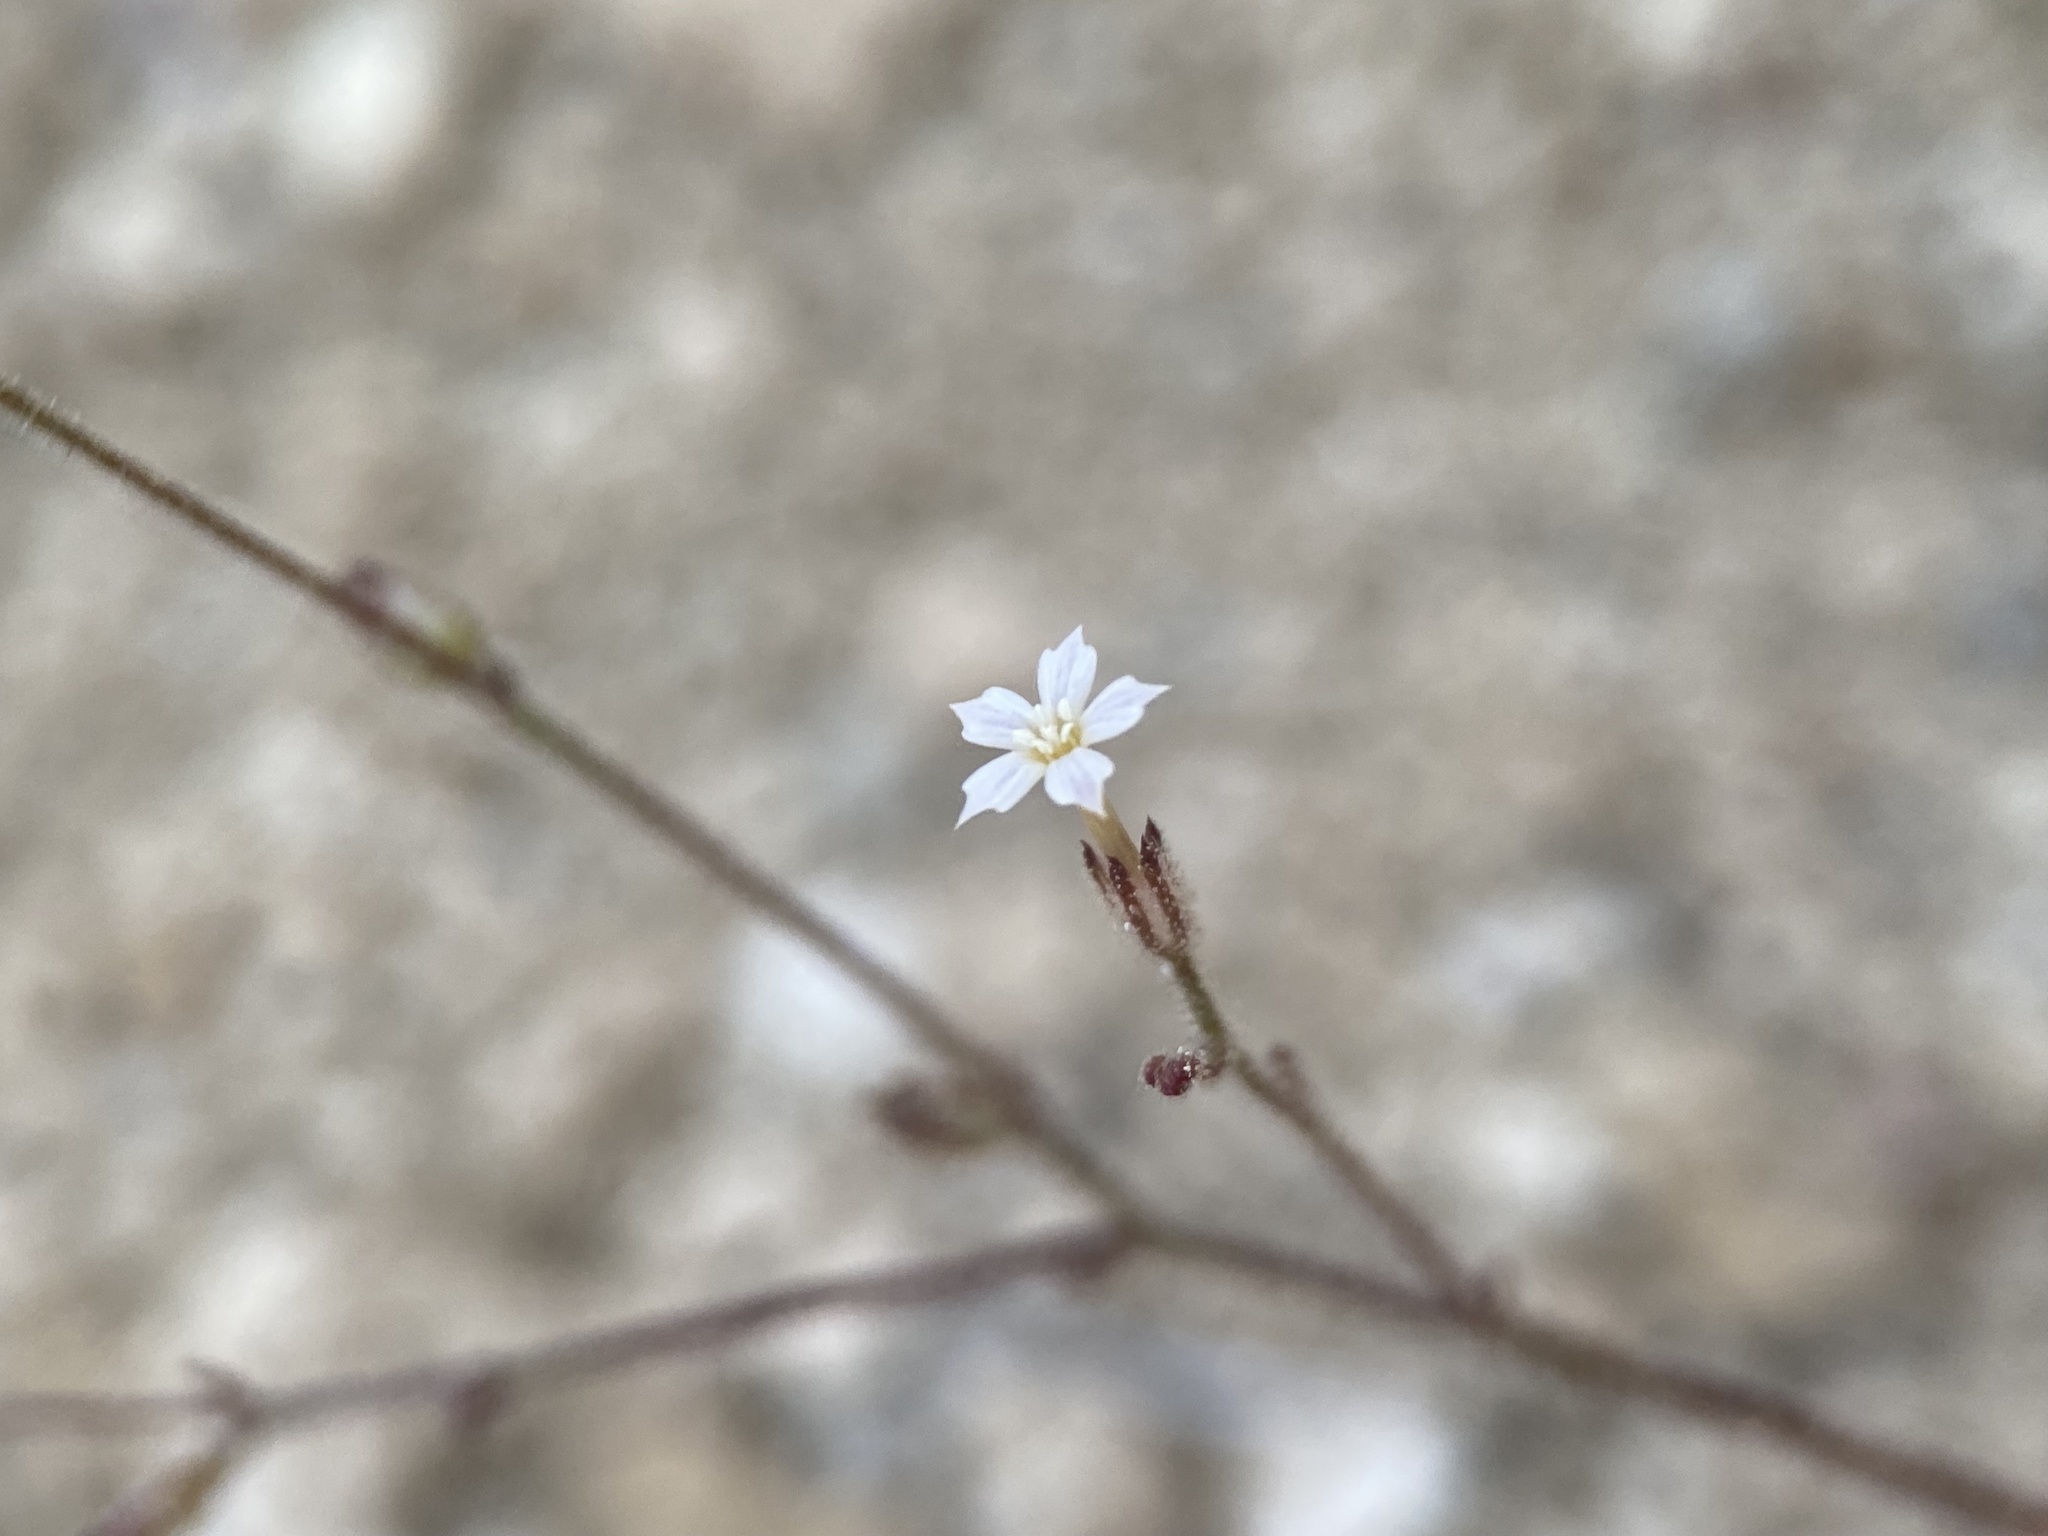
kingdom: Plantae
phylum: Tracheophyta
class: Magnoliopsida
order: Ericales
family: Polemoniaceae
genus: Aliciella
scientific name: Aliciella leptomeria
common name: Sand gilia
